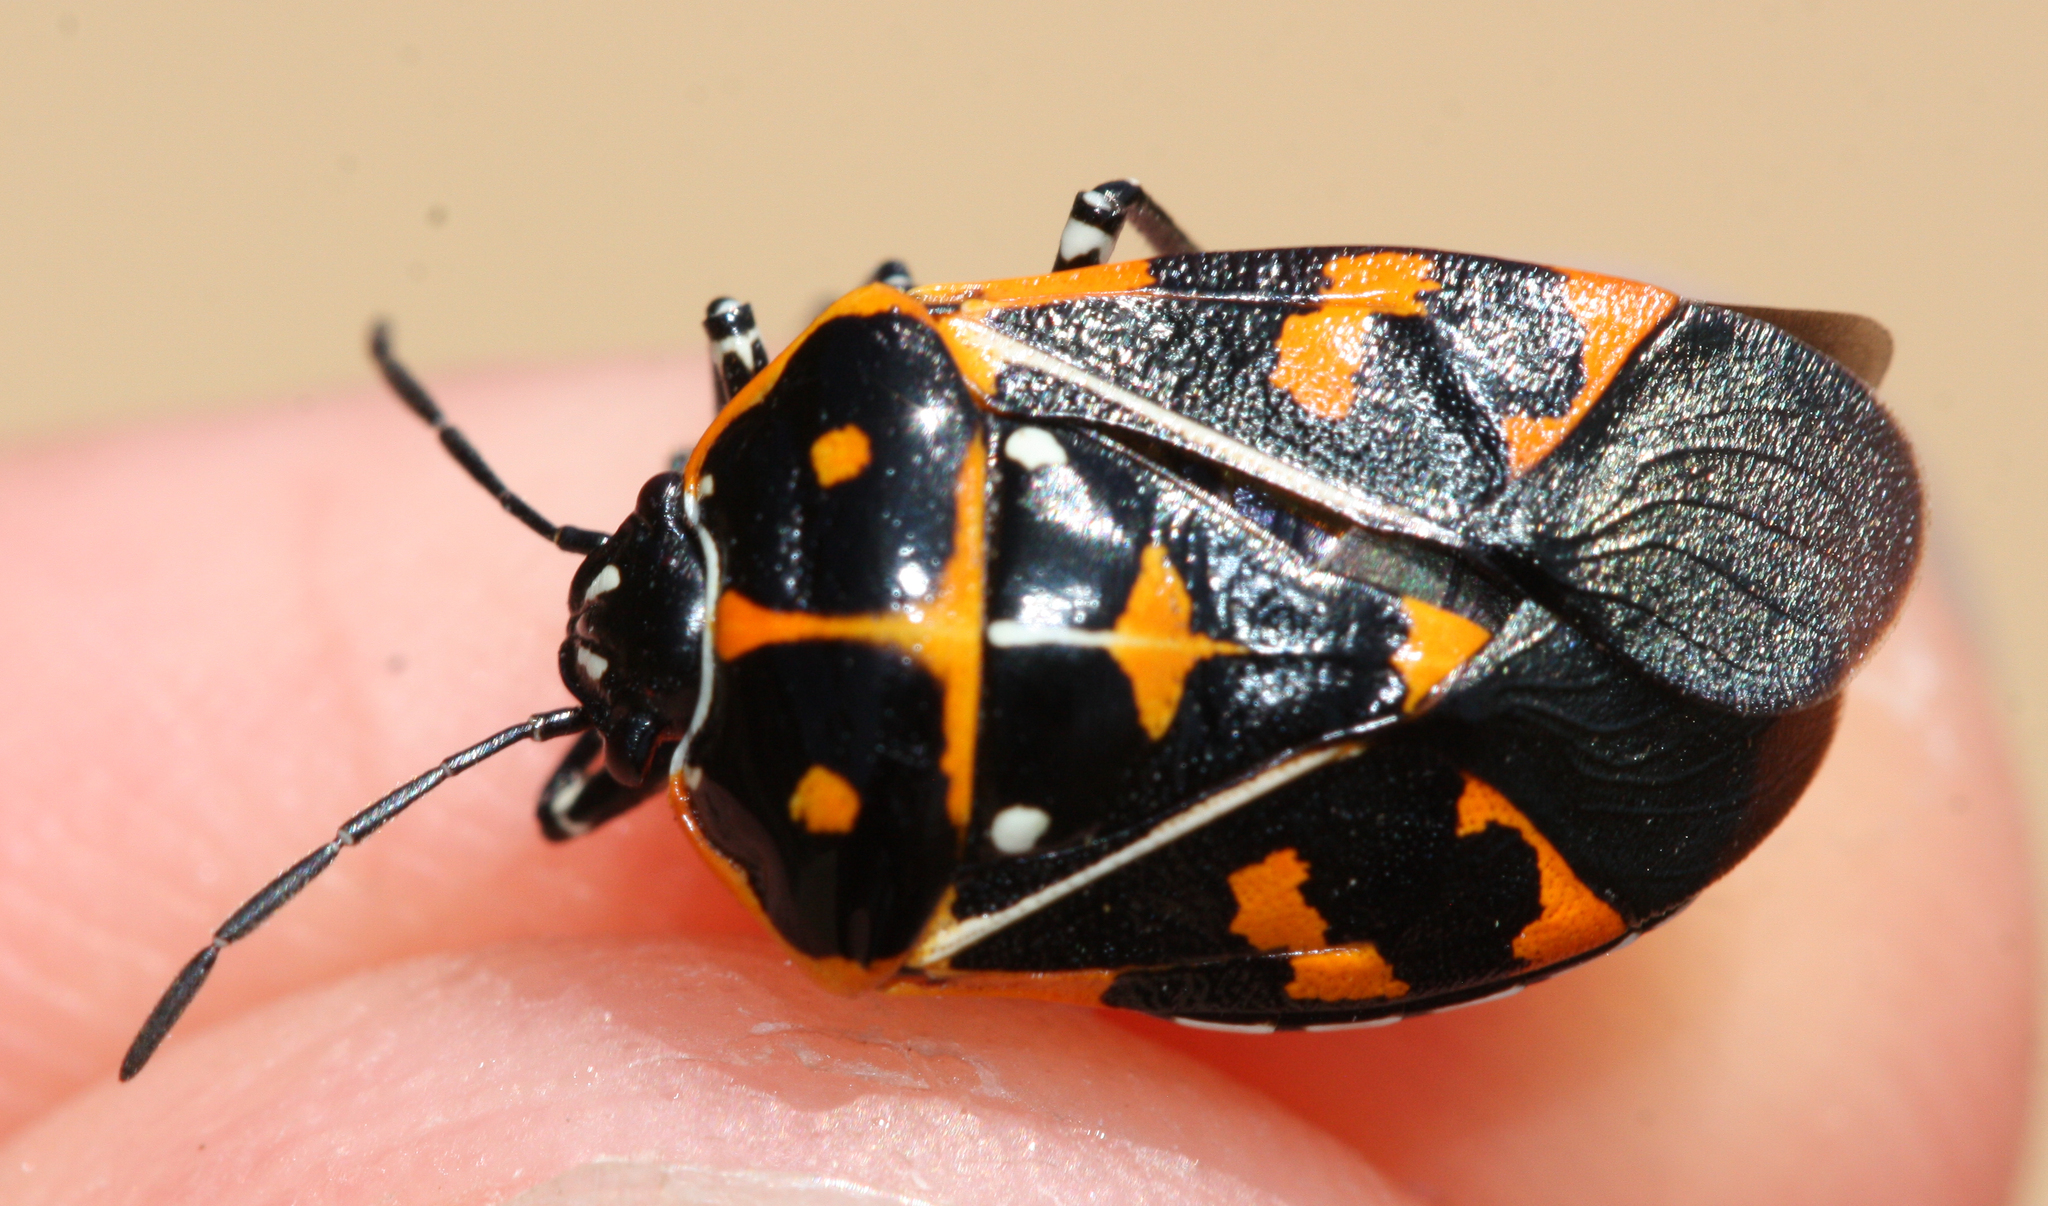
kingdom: Animalia
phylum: Arthropoda
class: Insecta
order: Hemiptera
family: Pentatomidae
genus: Murgantia
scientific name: Murgantia histrionica
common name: Harlequin bug
